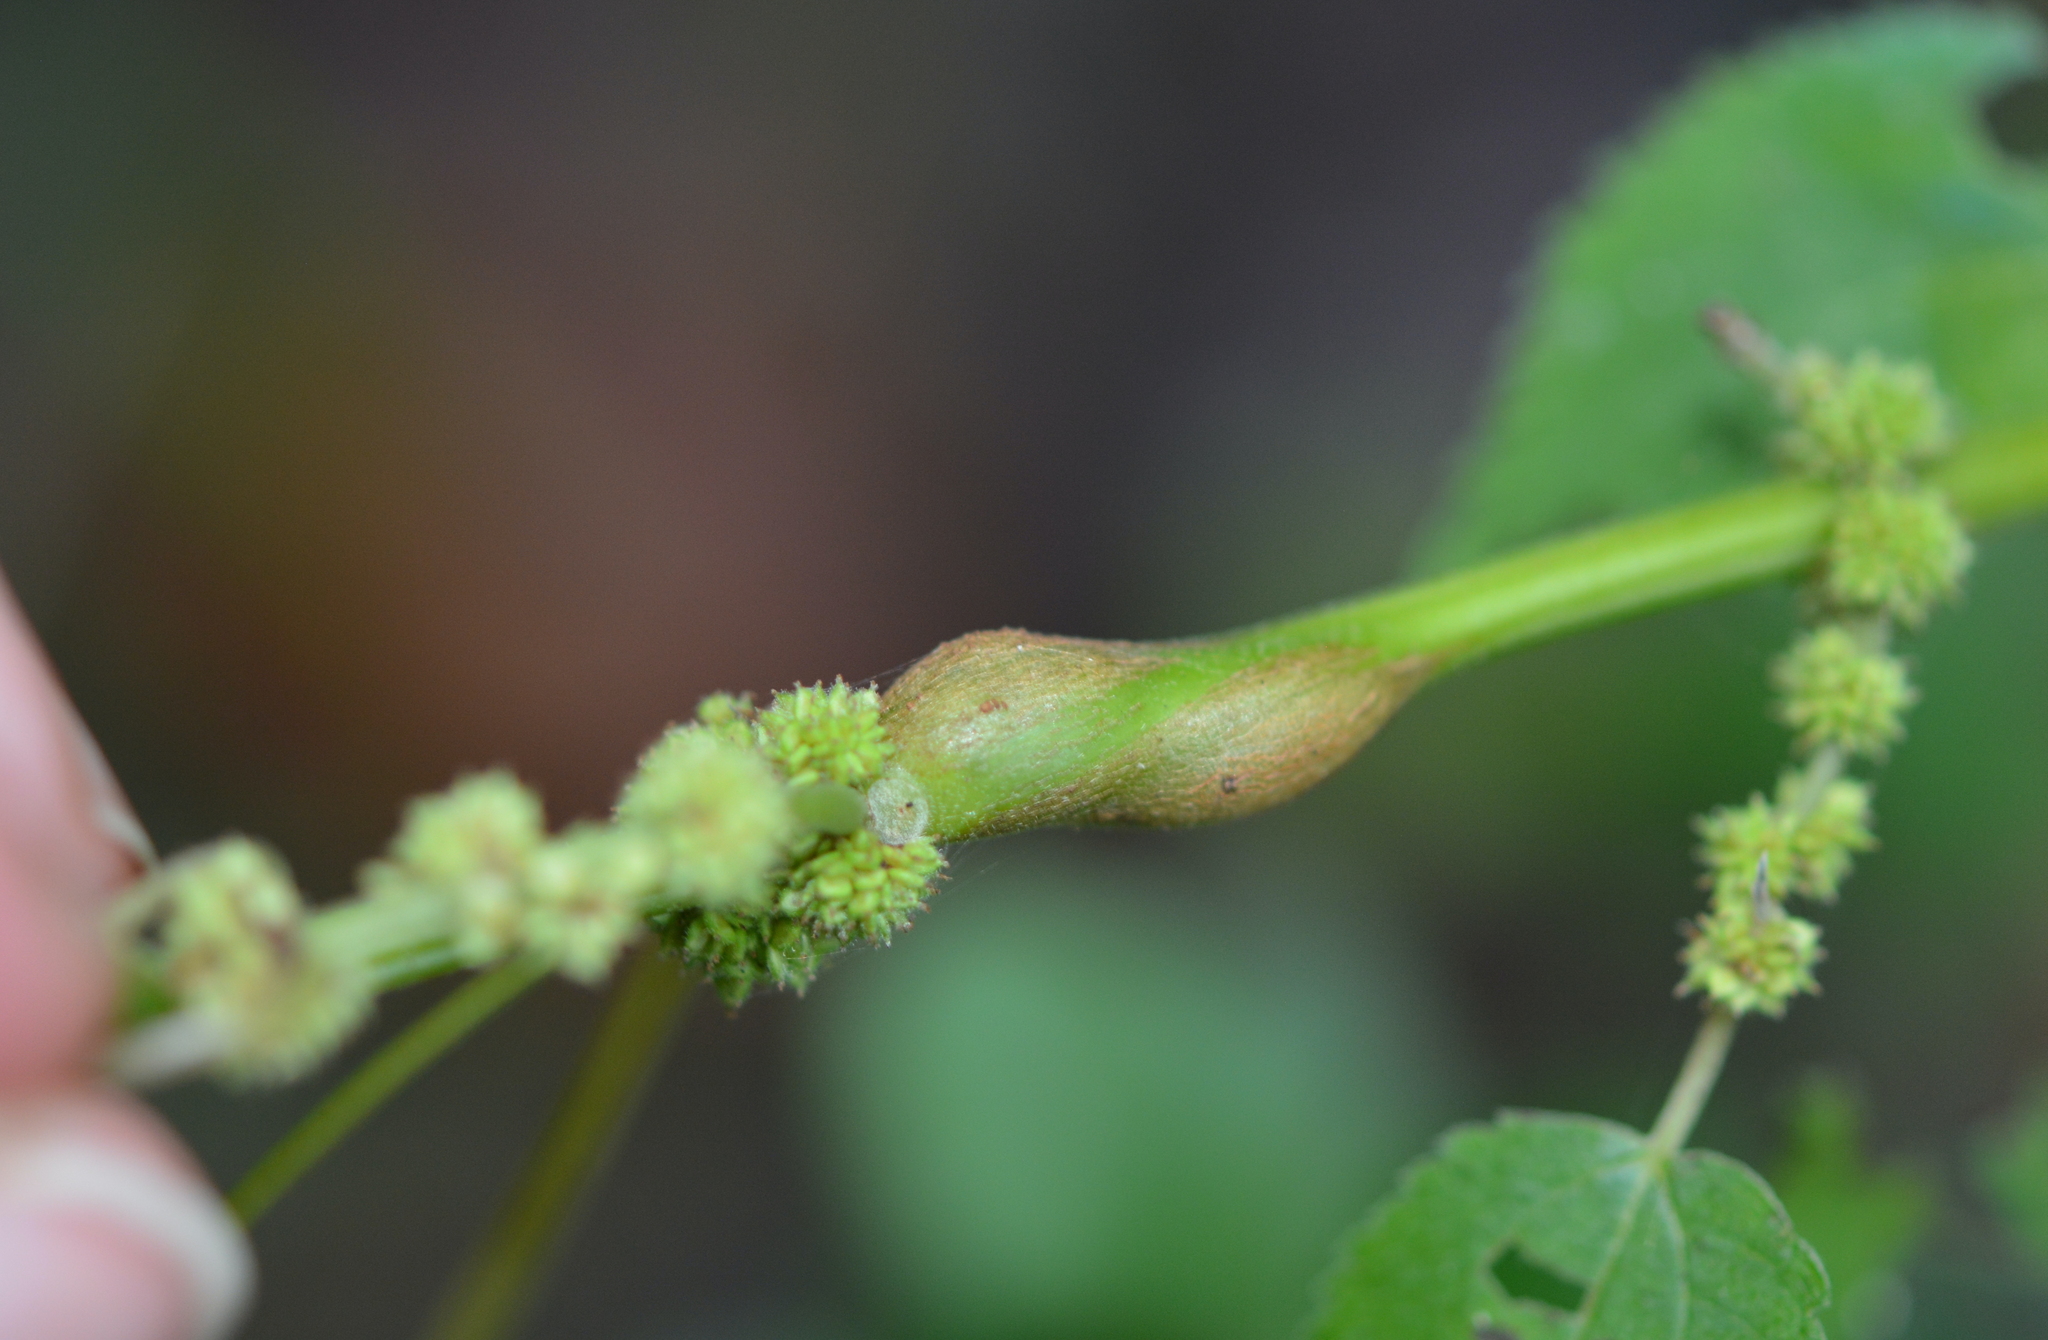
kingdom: Animalia
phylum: Arthropoda
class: Insecta
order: Diptera
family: Cecidomyiidae
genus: Neolasioptera
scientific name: Neolasioptera boehmeriae
